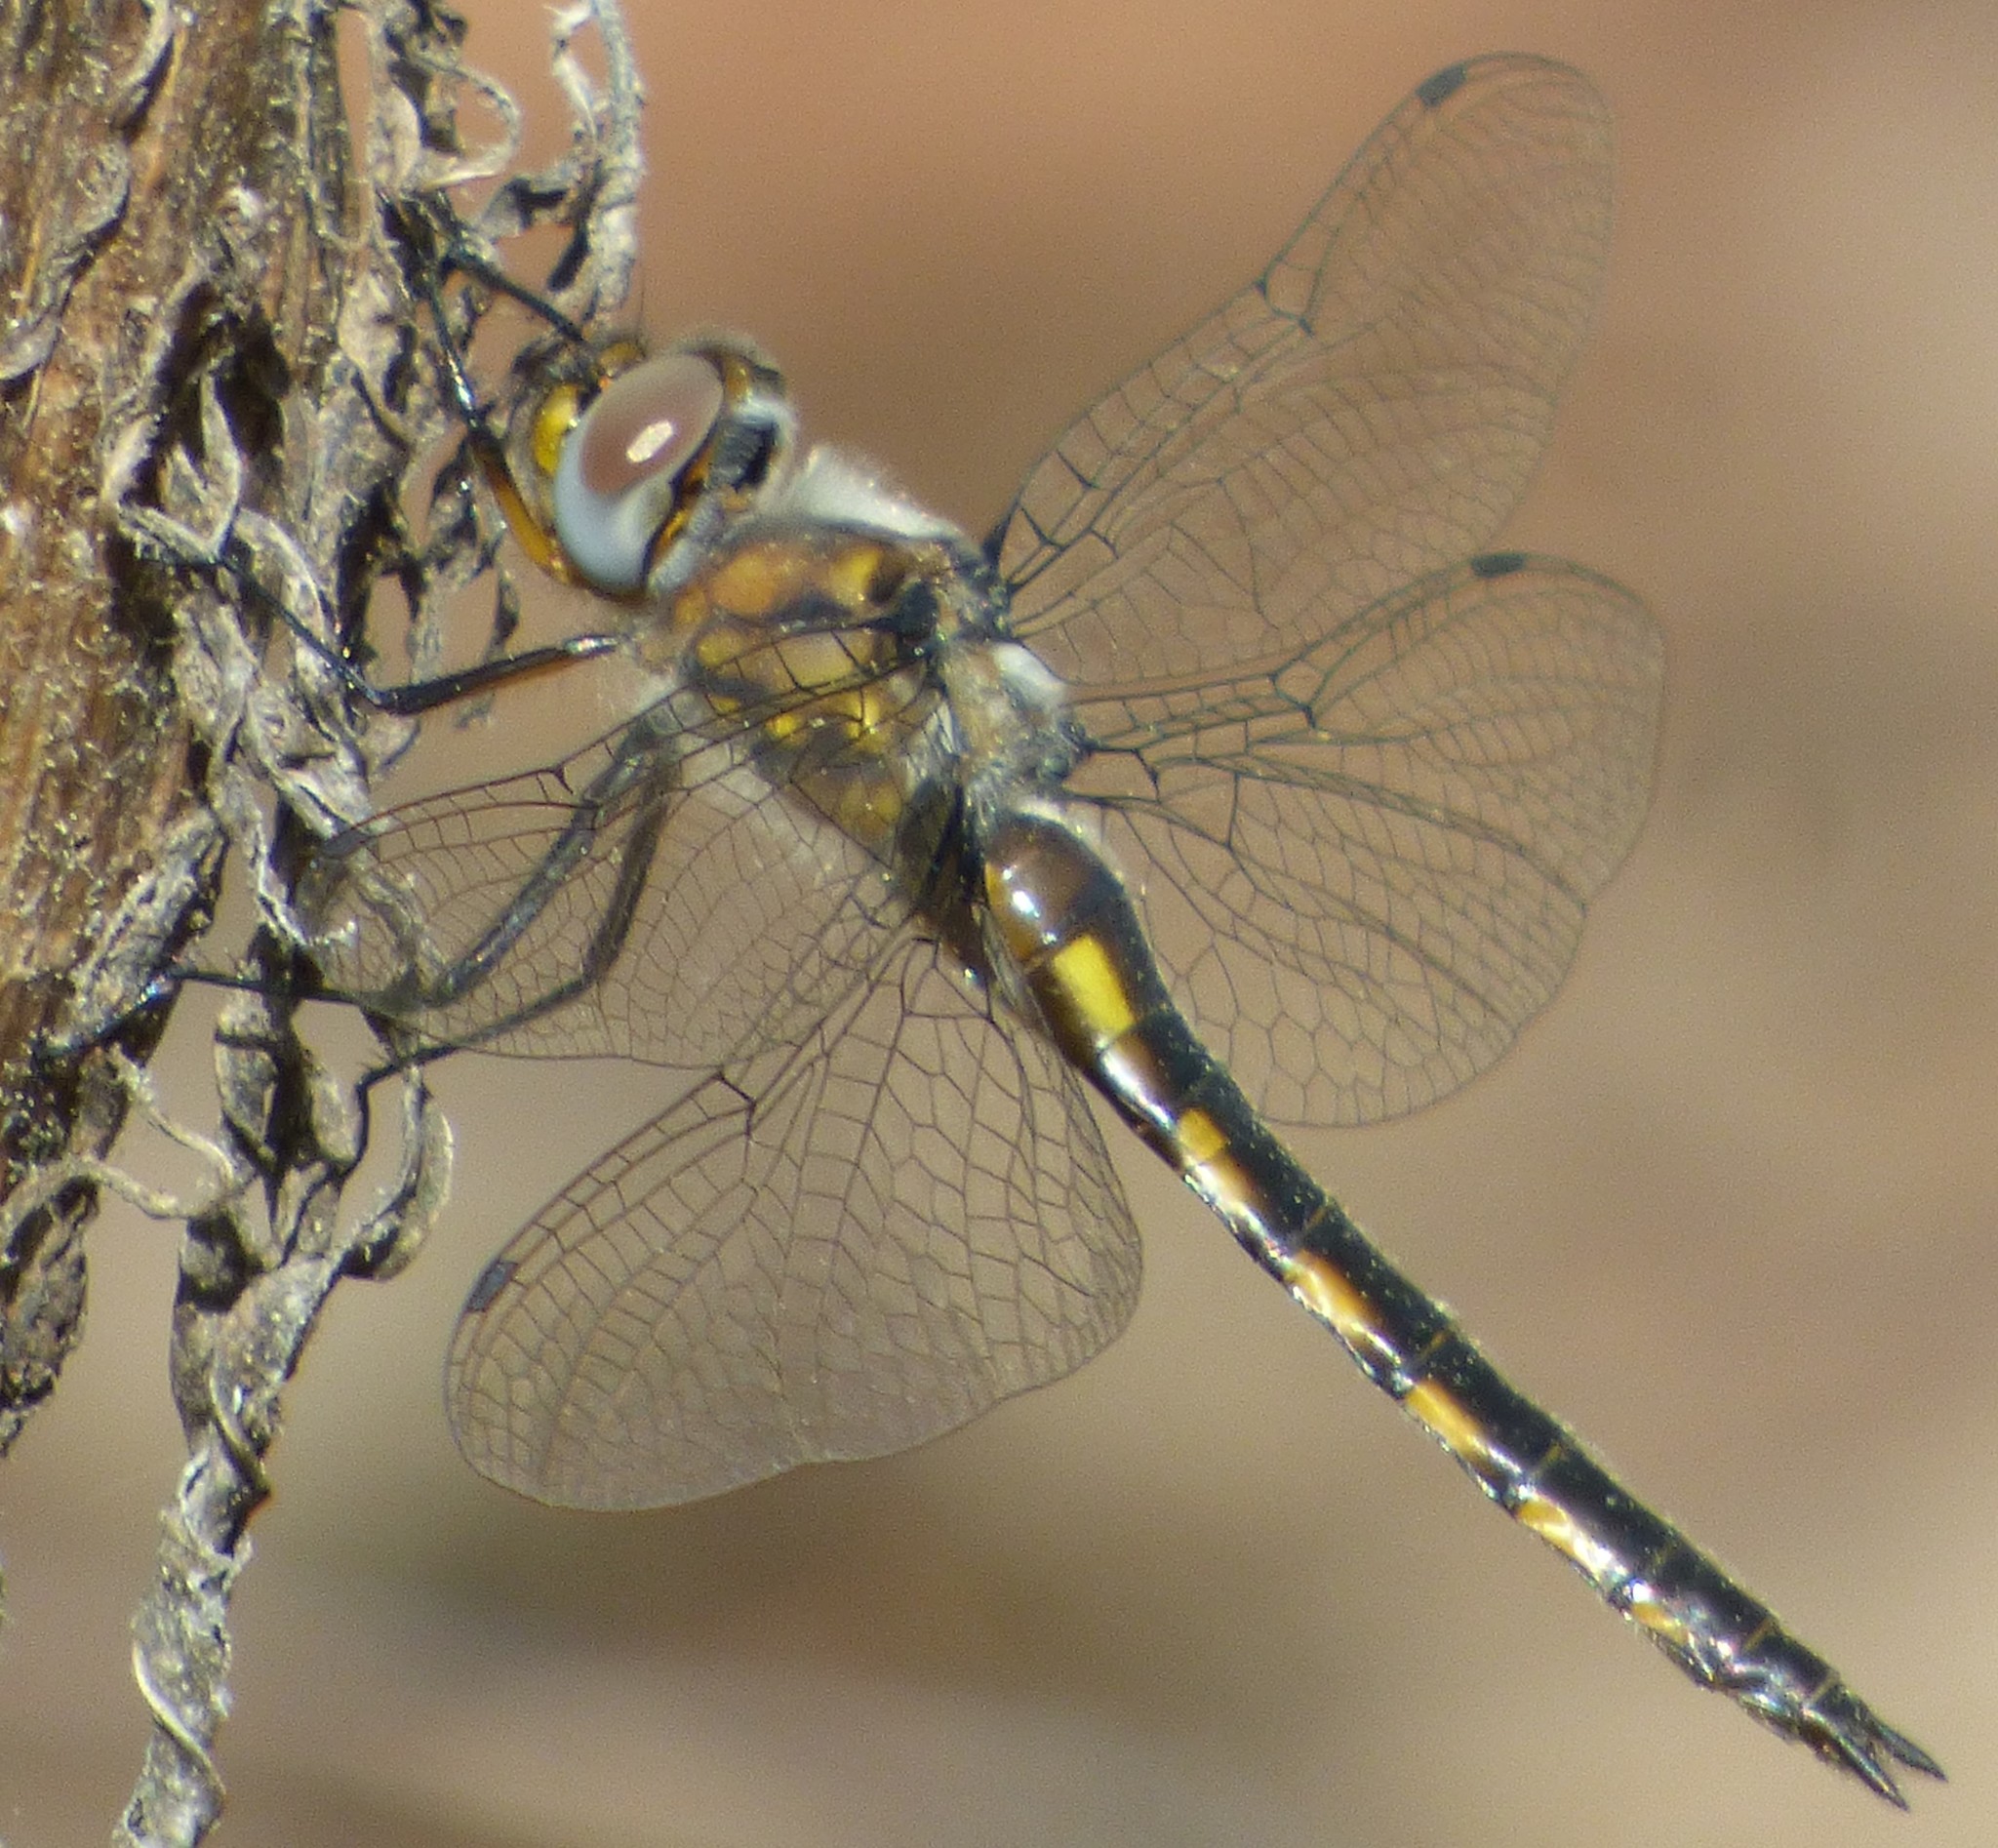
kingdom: Animalia
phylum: Arthropoda
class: Insecta
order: Odonata
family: Corduliidae
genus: Epitheca
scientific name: Epitheca costalis
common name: Slender baskettail
